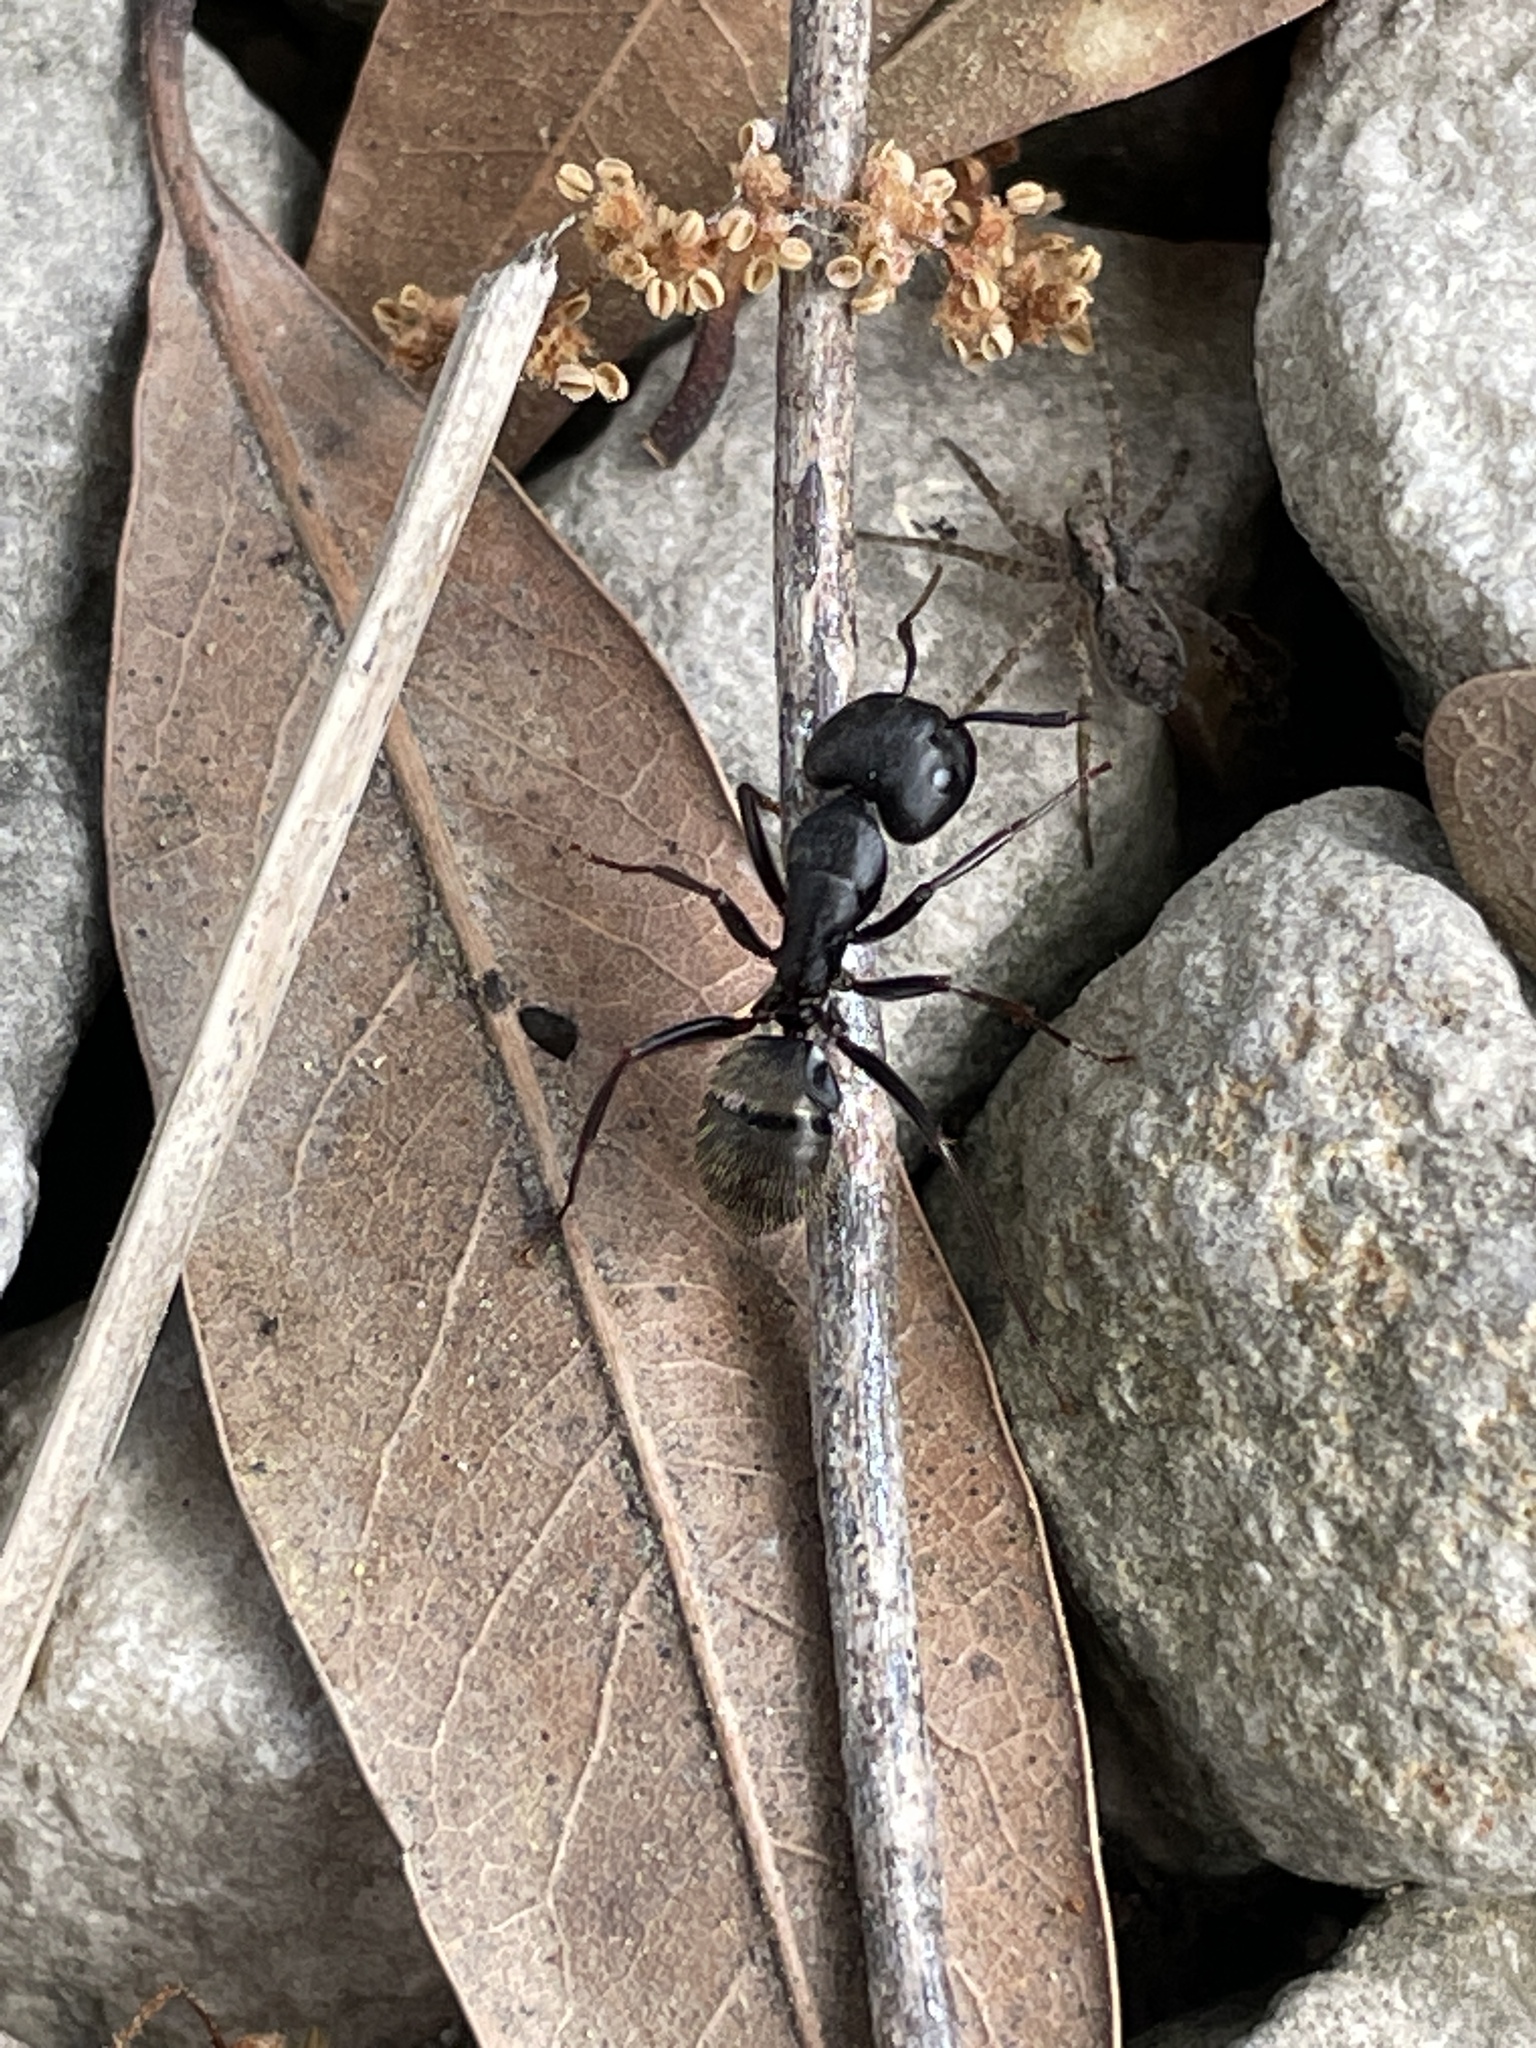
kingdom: Animalia
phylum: Arthropoda
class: Insecta
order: Hymenoptera
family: Formicidae
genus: Camponotus
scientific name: Camponotus pennsylvanicus
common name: Black carpenter ant
